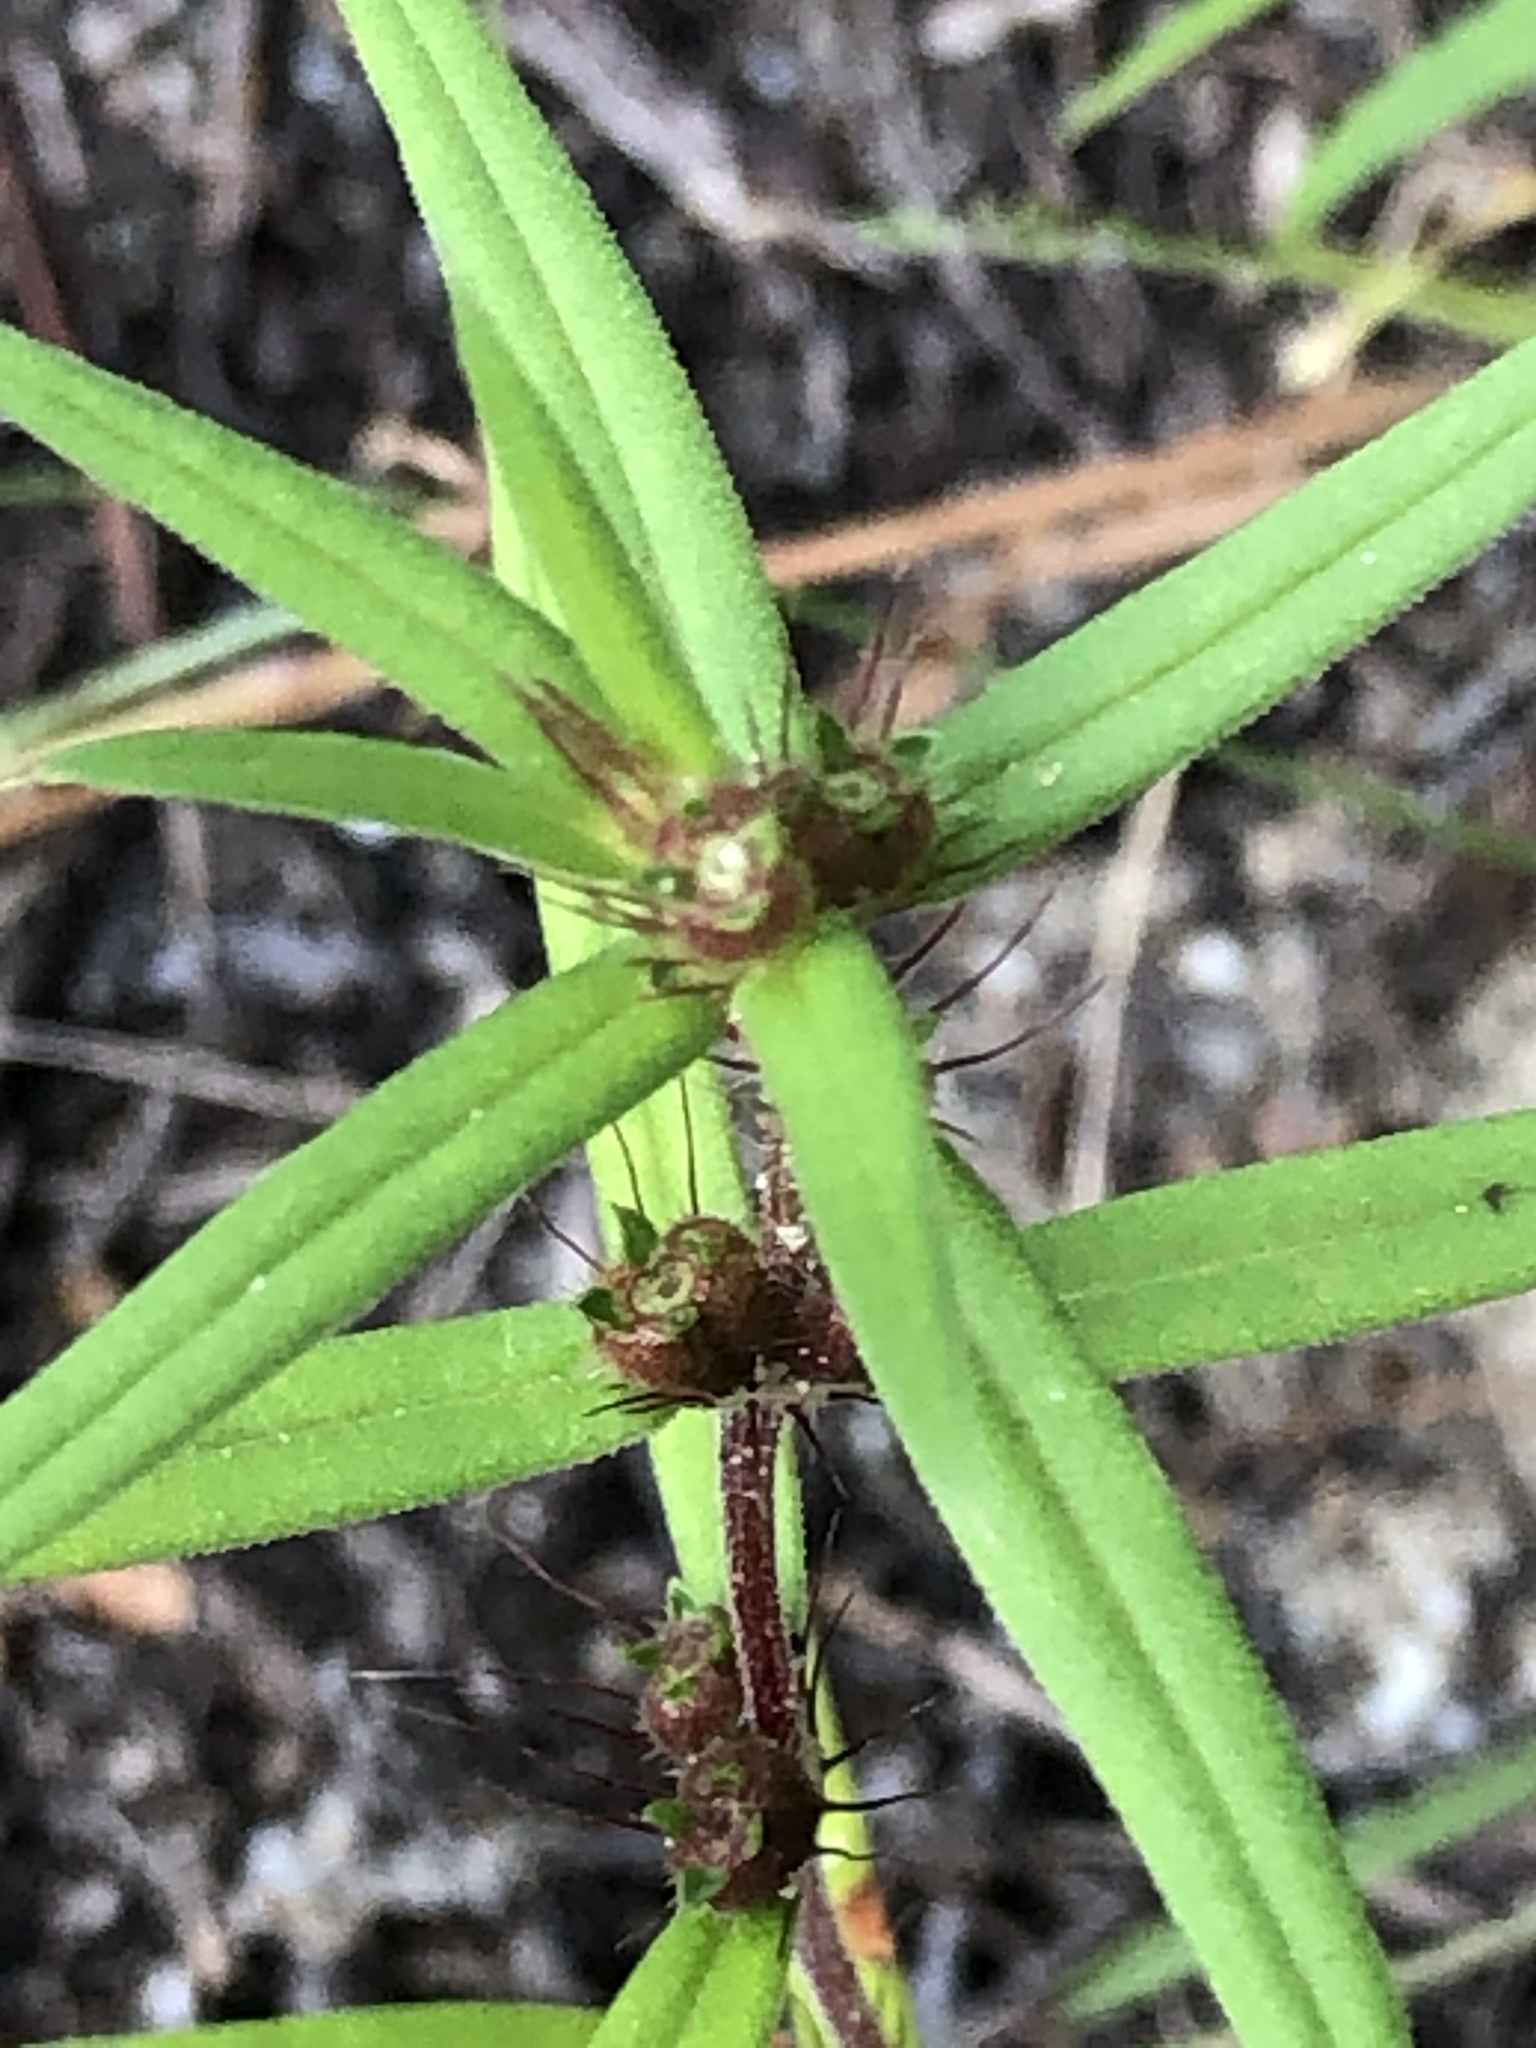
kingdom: Plantae
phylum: Tracheophyta
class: Magnoliopsida
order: Gentianales
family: Rubiaceae
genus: Hexasepalum
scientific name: Hexasepalum teres
